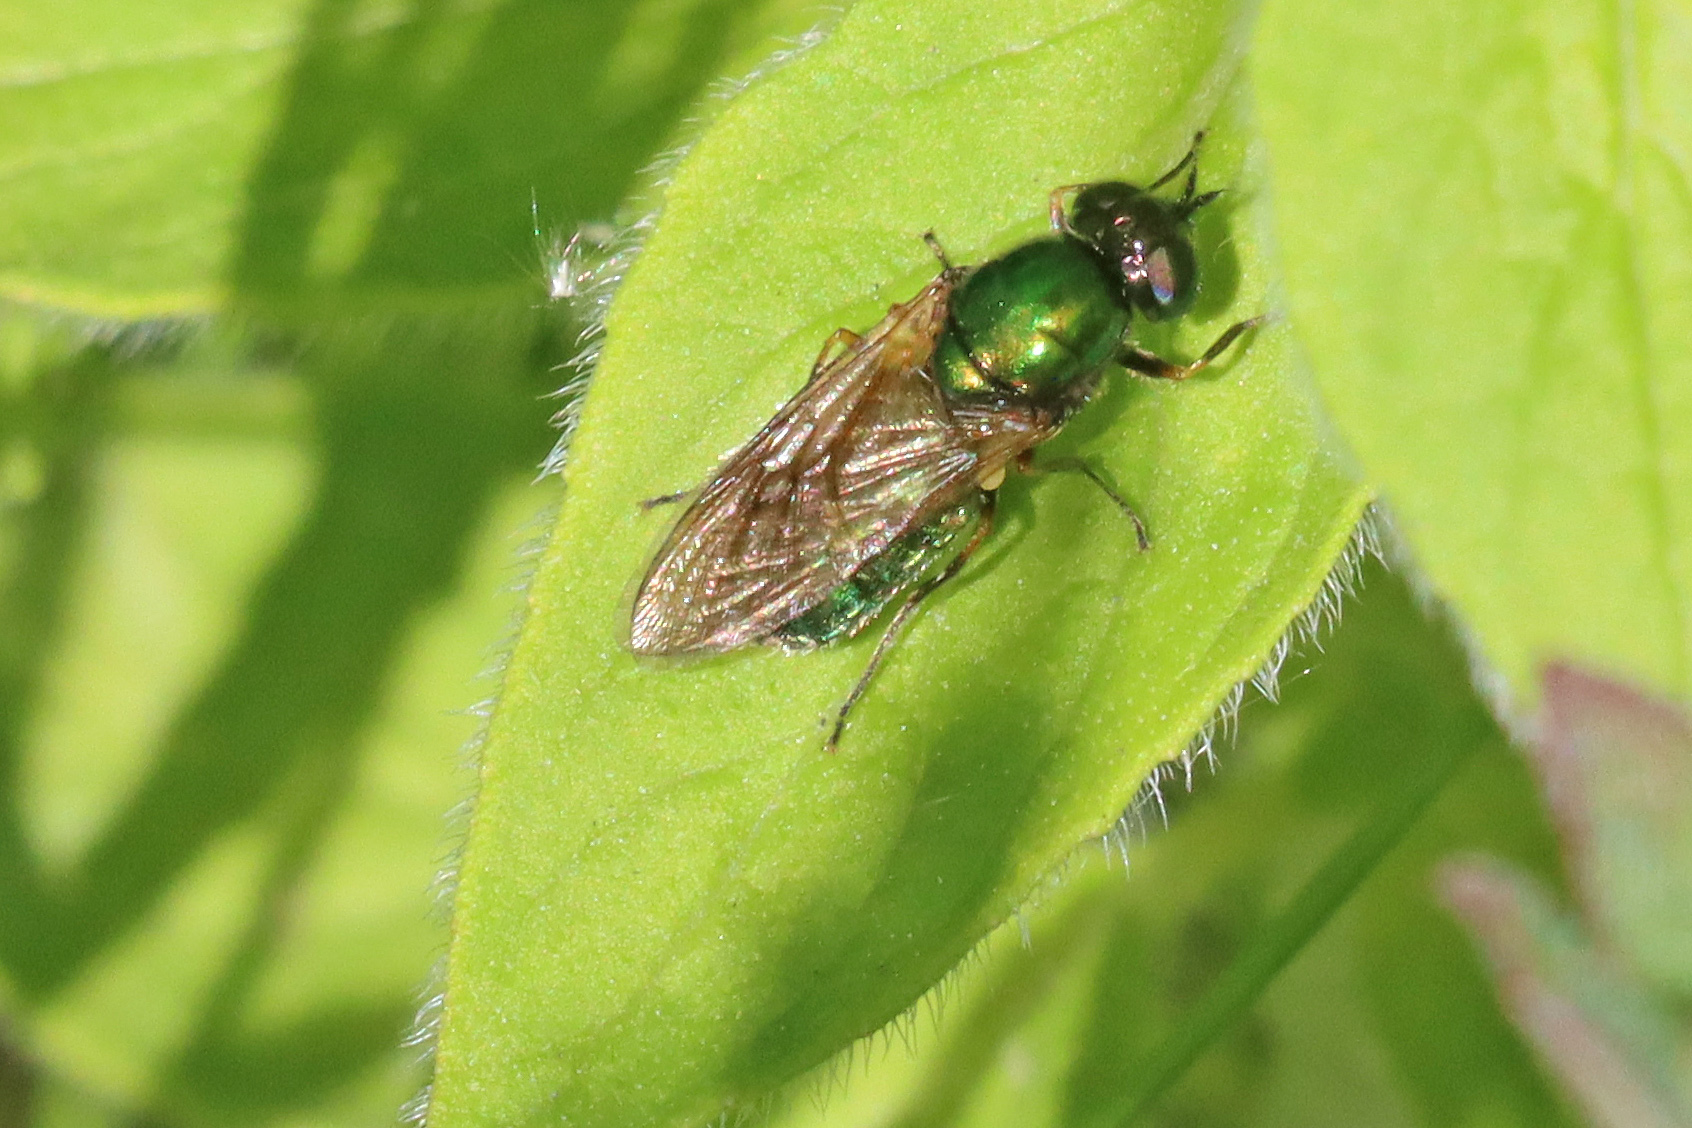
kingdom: Animalia
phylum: Arthropoda
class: Insecta
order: Diptera
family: Stratiomyidae
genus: Chloromyia
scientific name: Chloromyia formosa
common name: Soldier fly
